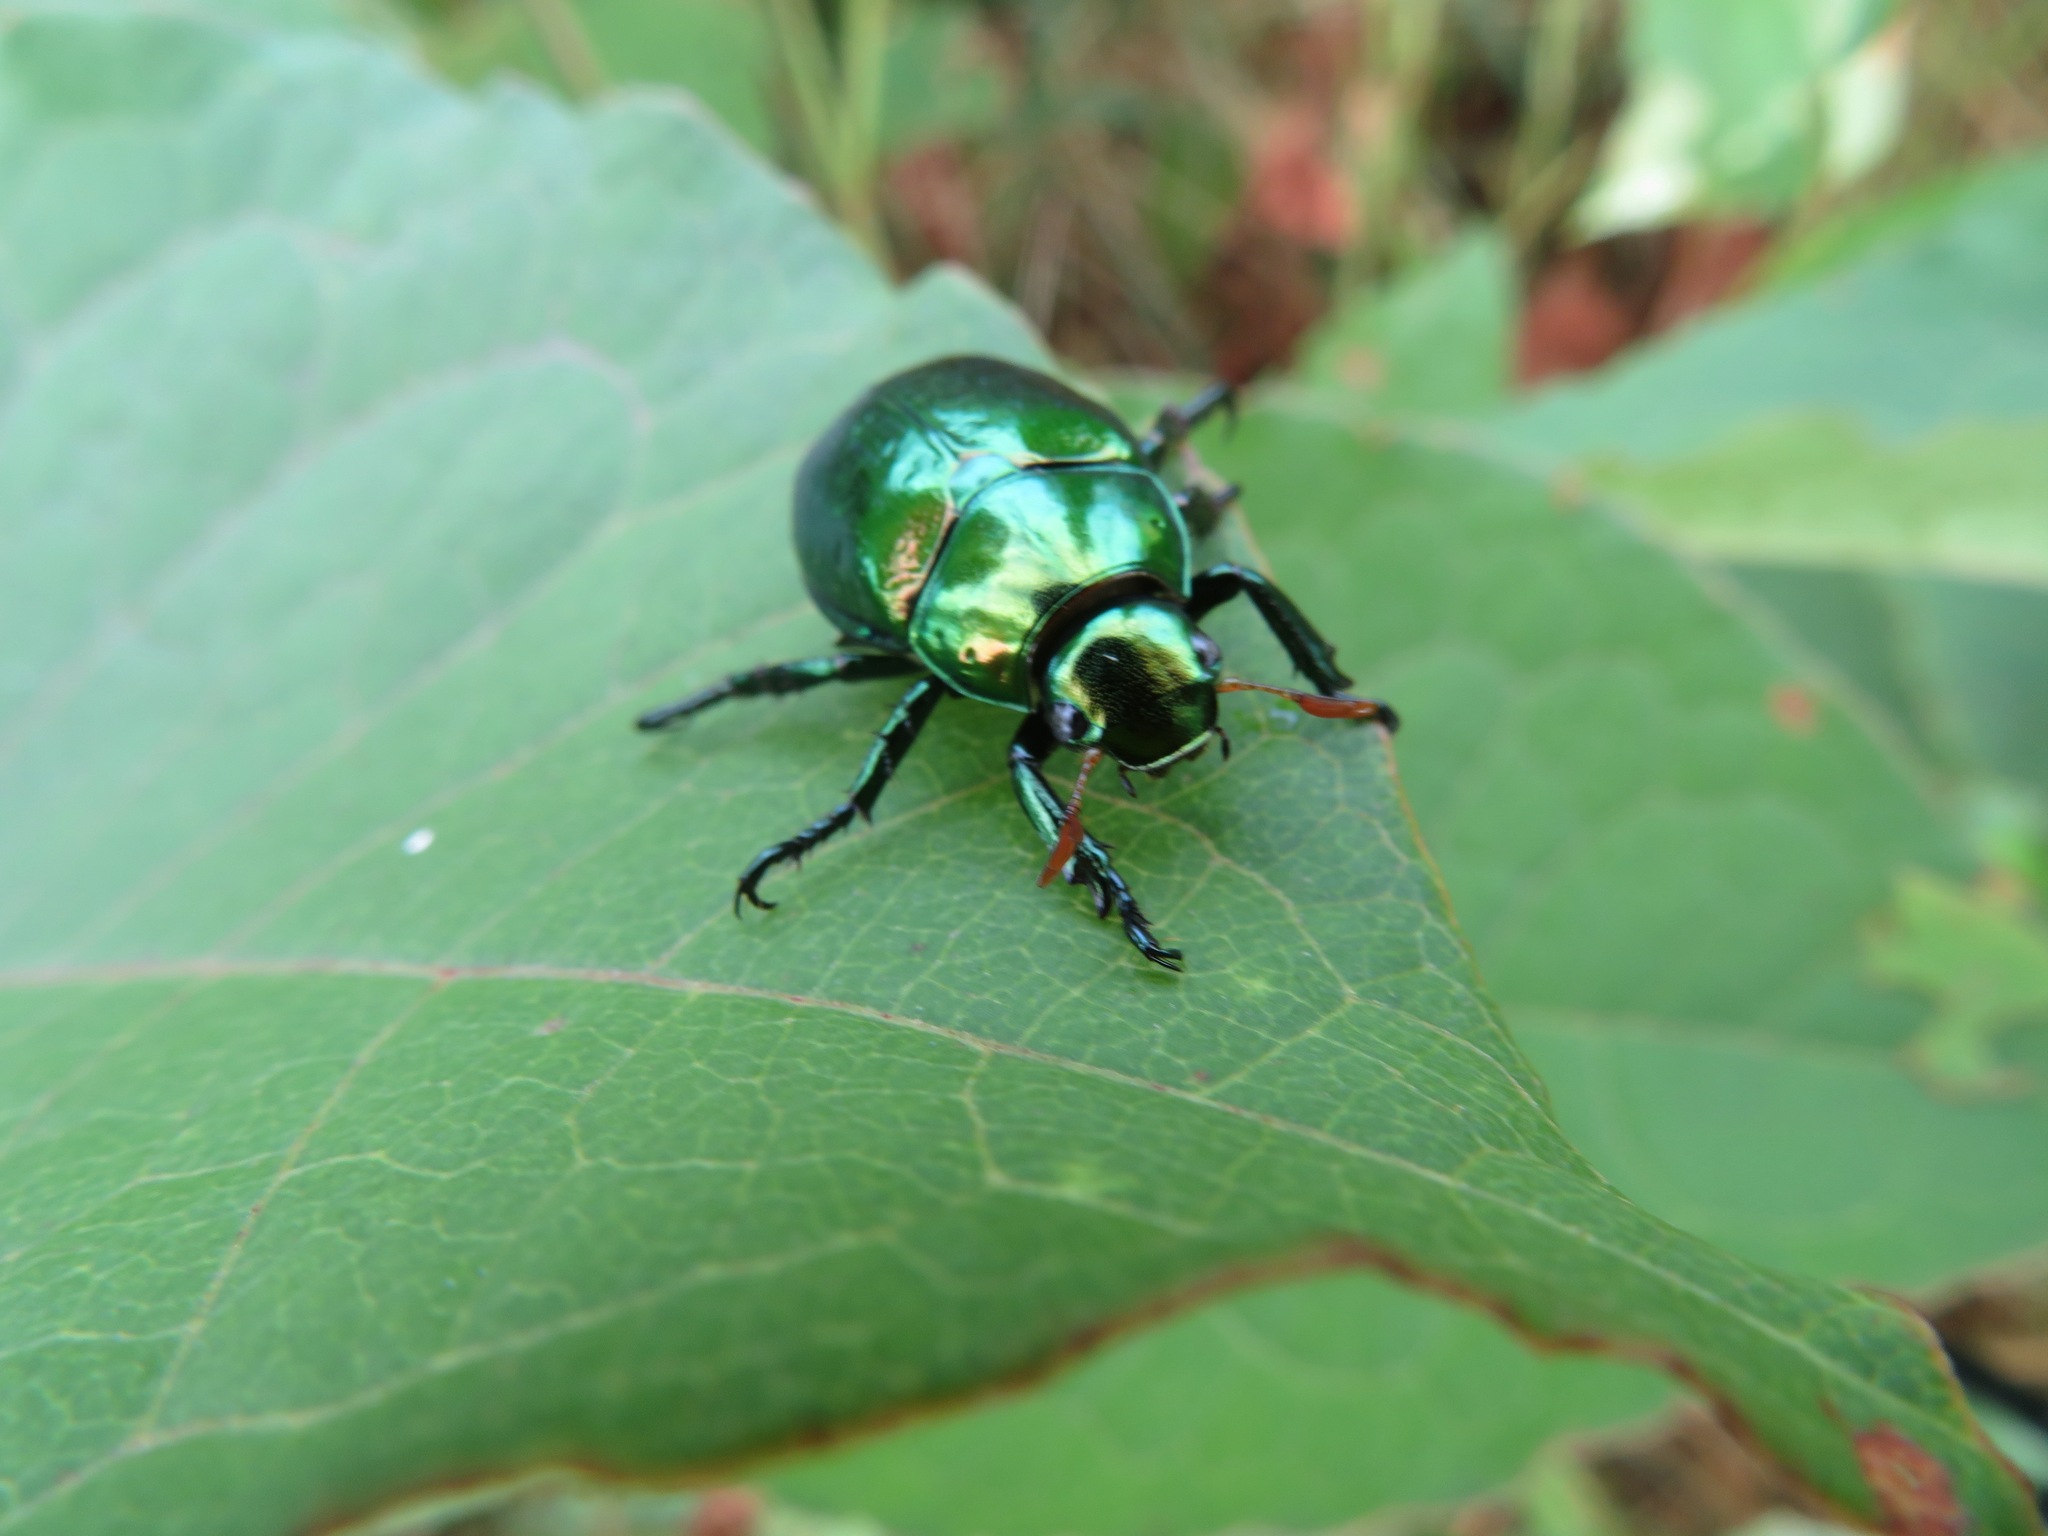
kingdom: Animalia
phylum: Arthropoda
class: Insecta
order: Coleoptera
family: Scarabaeidae
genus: Mimela
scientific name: Mimela splendens
